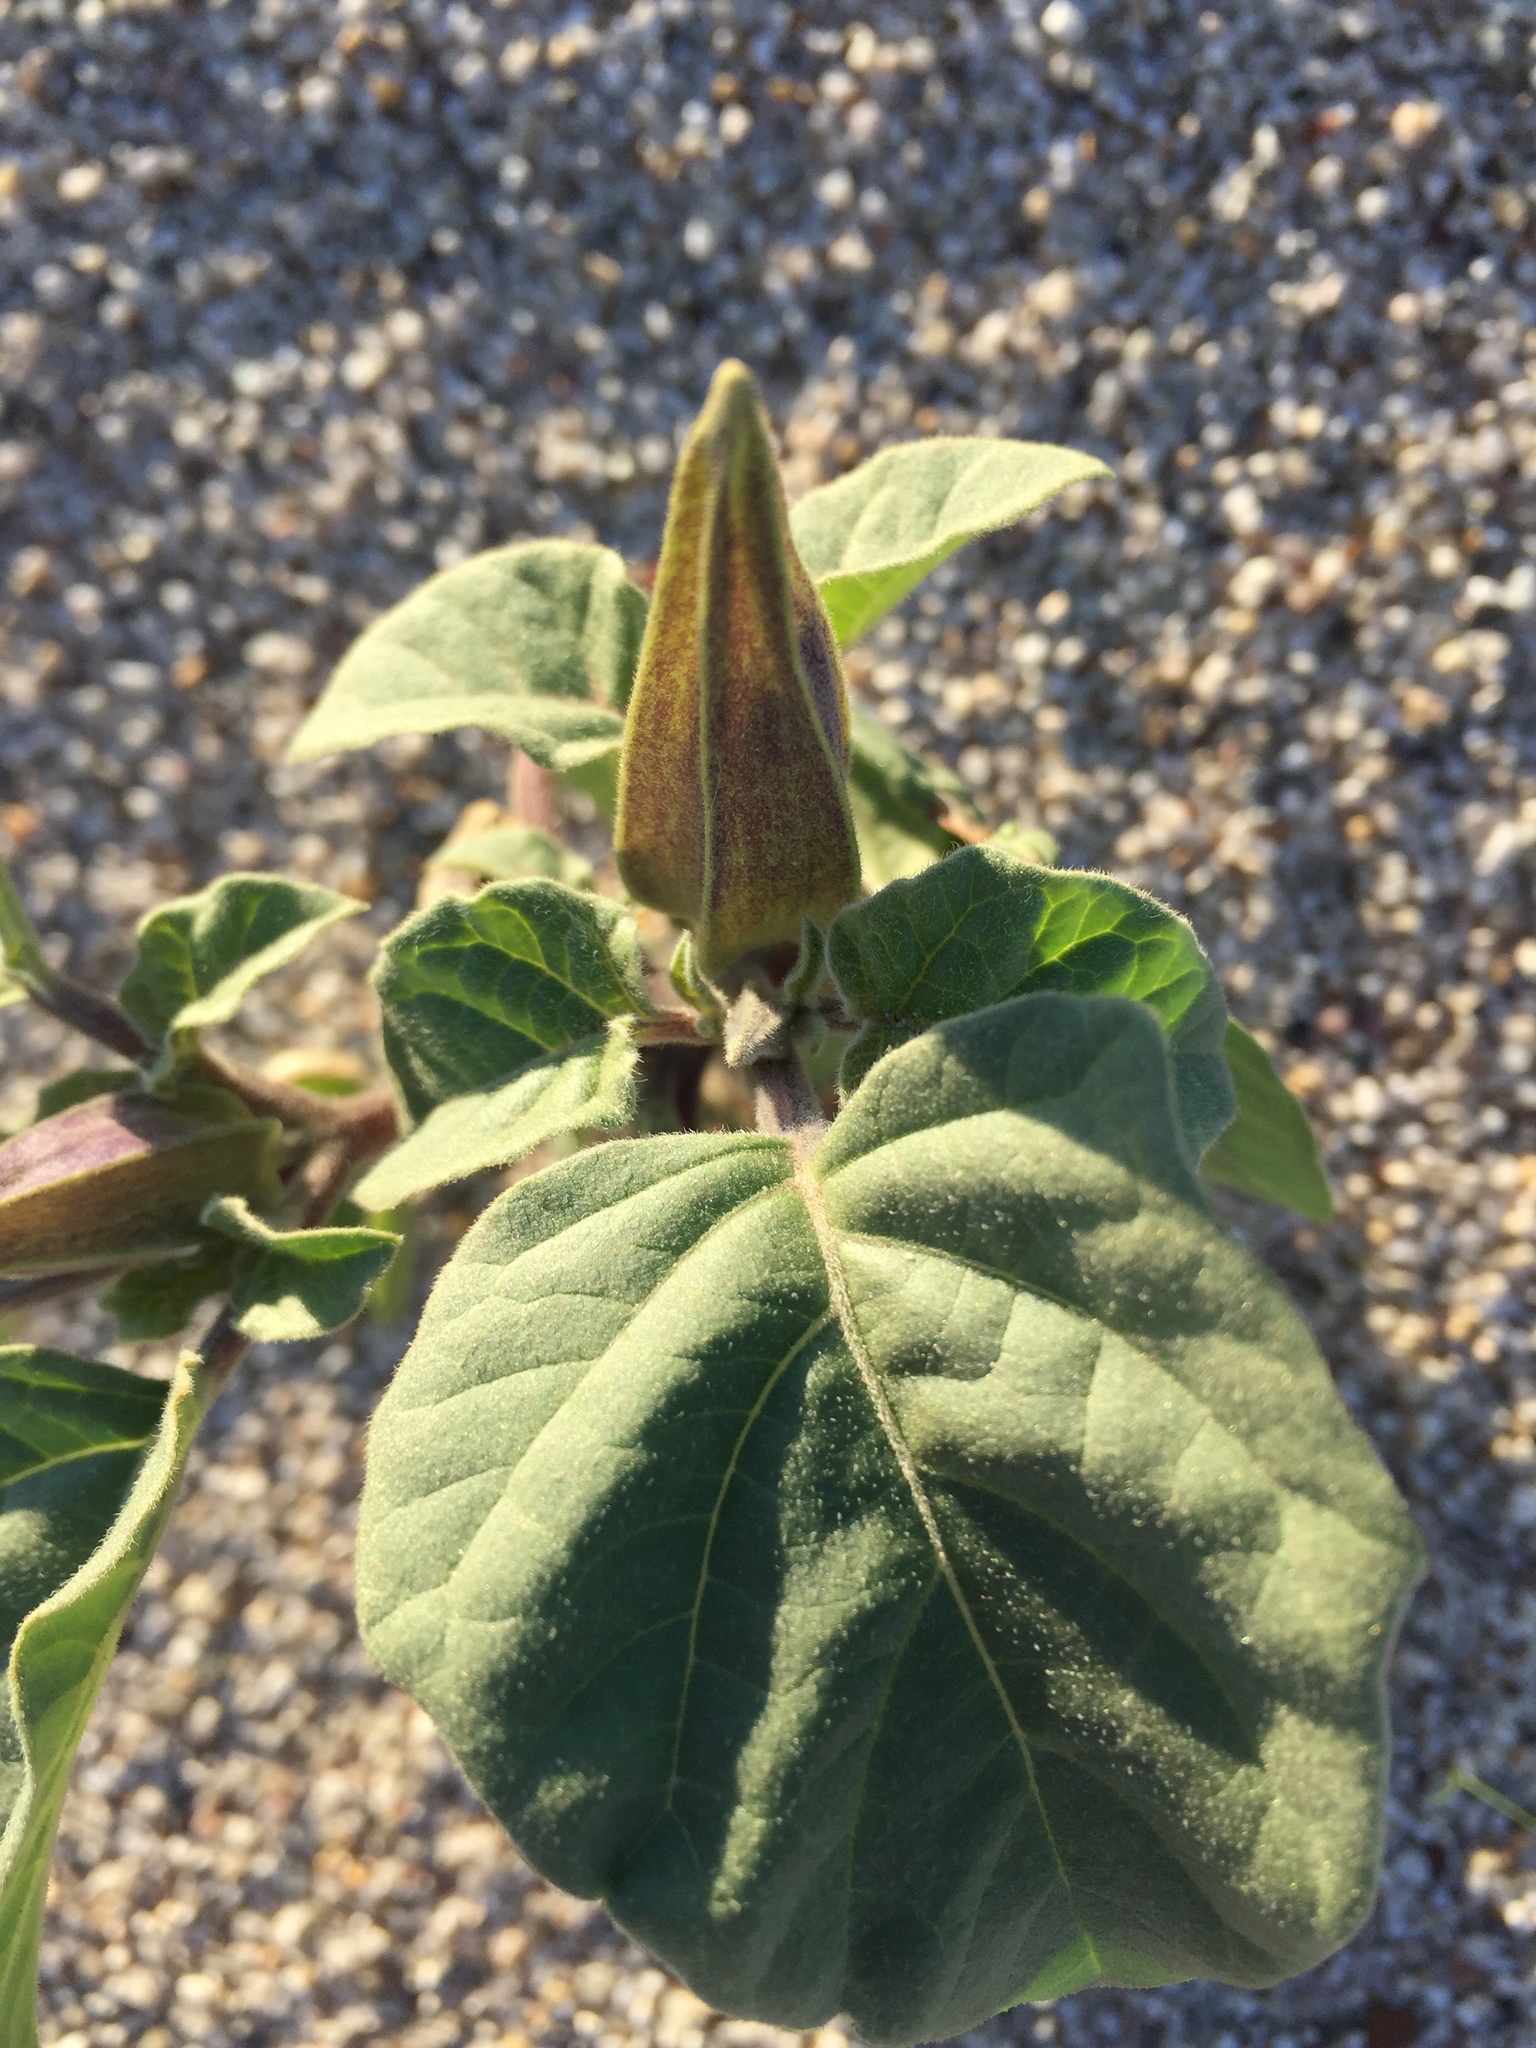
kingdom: Plantae
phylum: Tracheophyta
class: Magnoliopsida
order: Solanales
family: Solanaceae
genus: Datura
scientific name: Datura discolor
